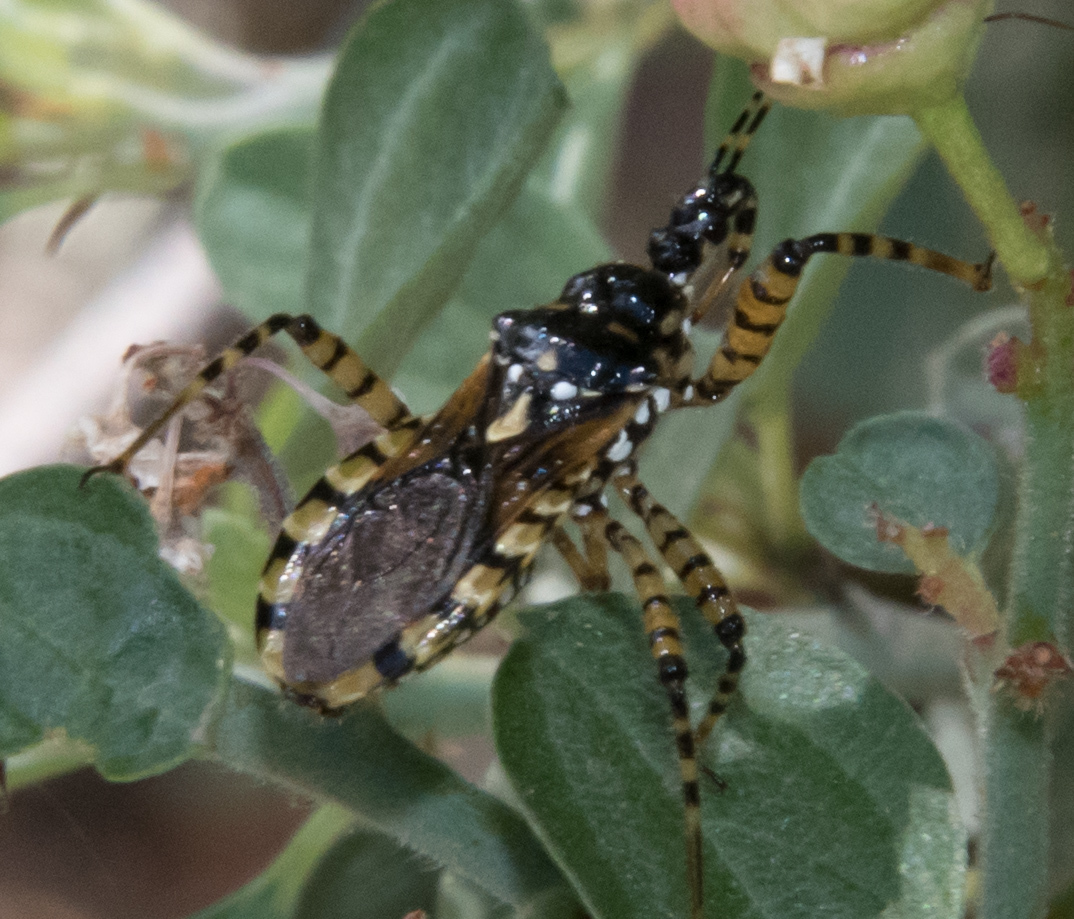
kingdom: Animalia
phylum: Arthropoda
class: Insecta
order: Hemiptera
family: Reduviidae
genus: Pselliopus
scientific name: Pselliopus marmorosus
